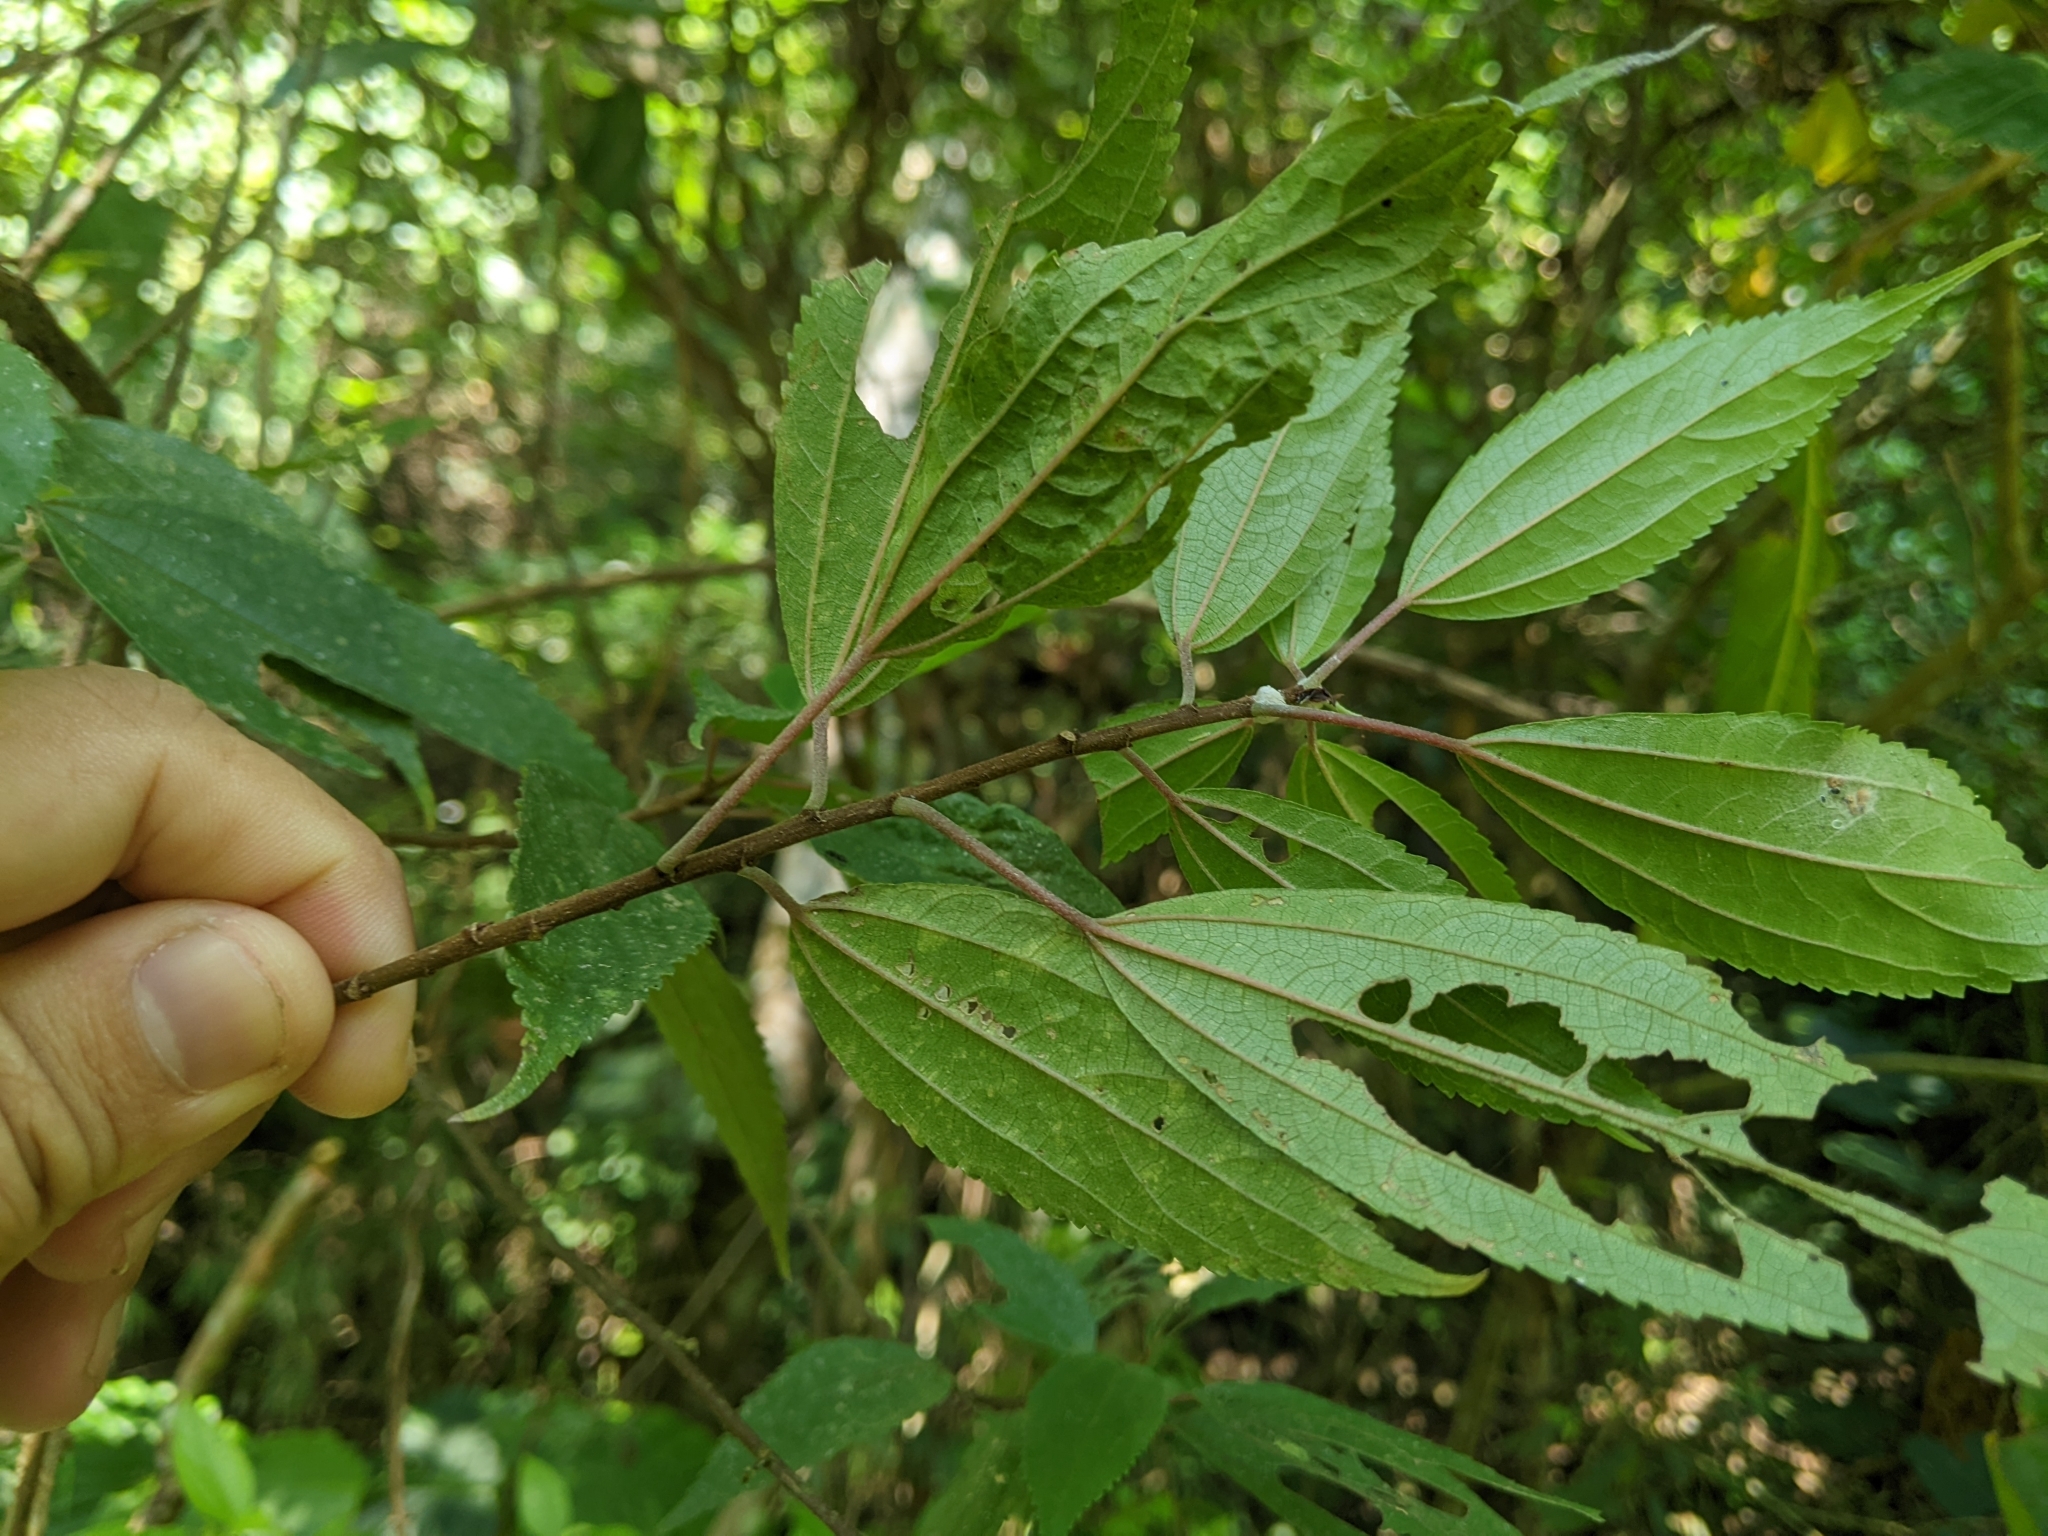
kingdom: Plantae
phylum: Tracheophyta
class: Magnoliopsida
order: Rosales
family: Urticaceae
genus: Oreocnide
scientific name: Oreocnide pedunculata
